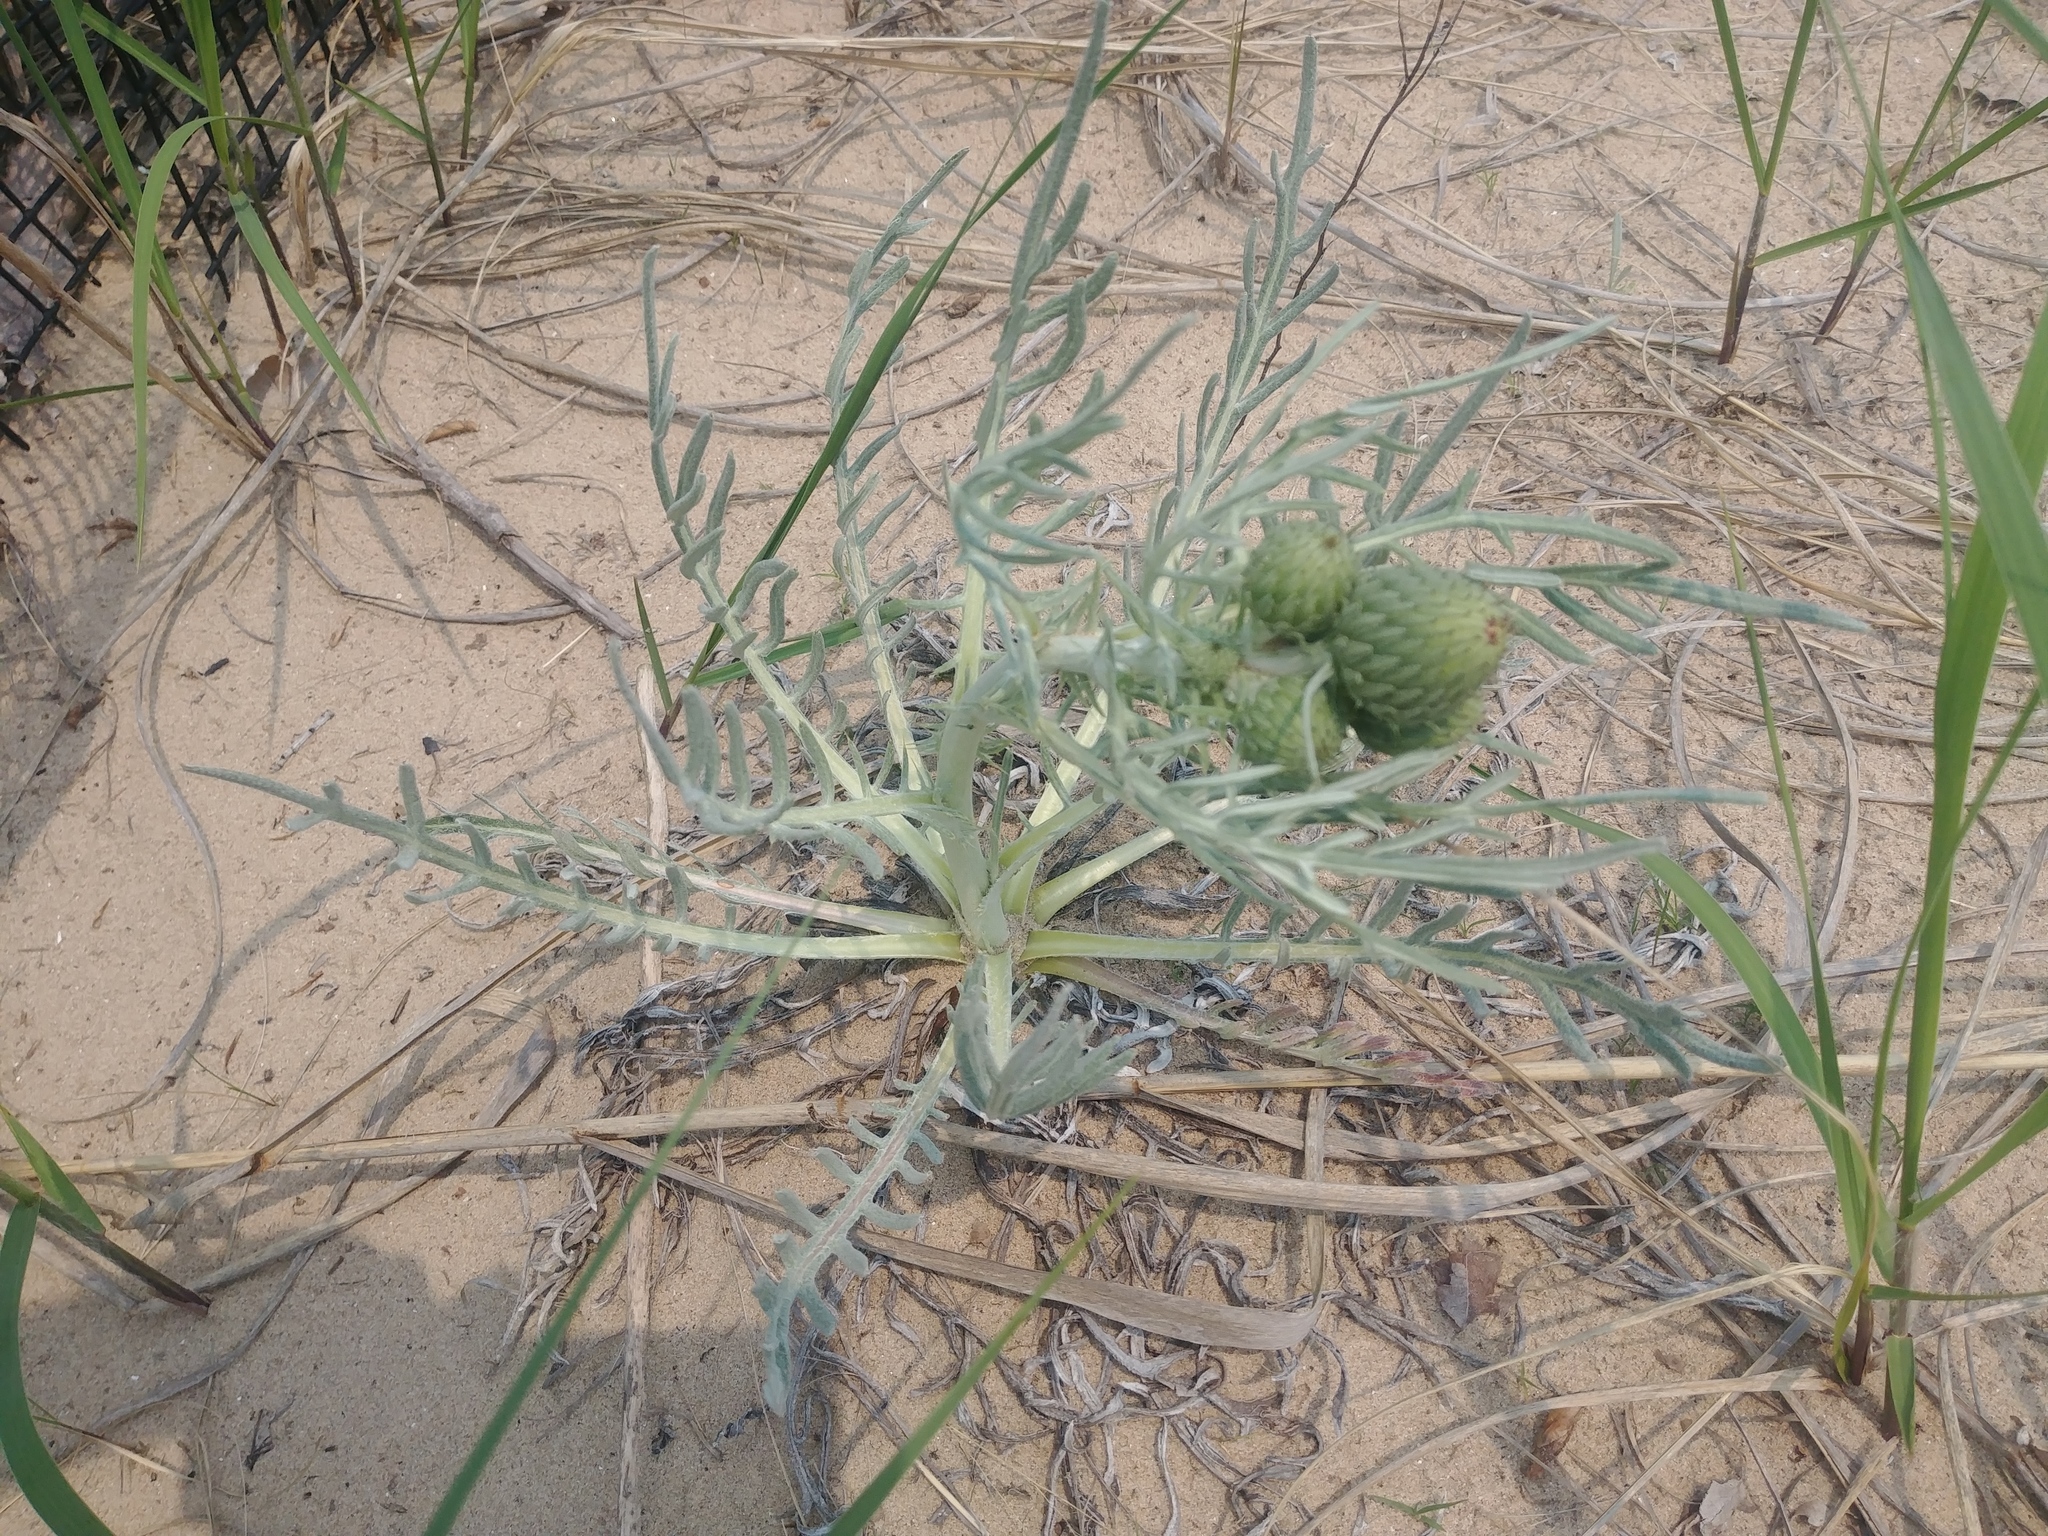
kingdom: Plantae
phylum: Tracheophyta
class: Magnoliopsida
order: Asterales
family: Asteraceae
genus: Cirsium
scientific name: Cirsium pitcheri
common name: Dune thistle
